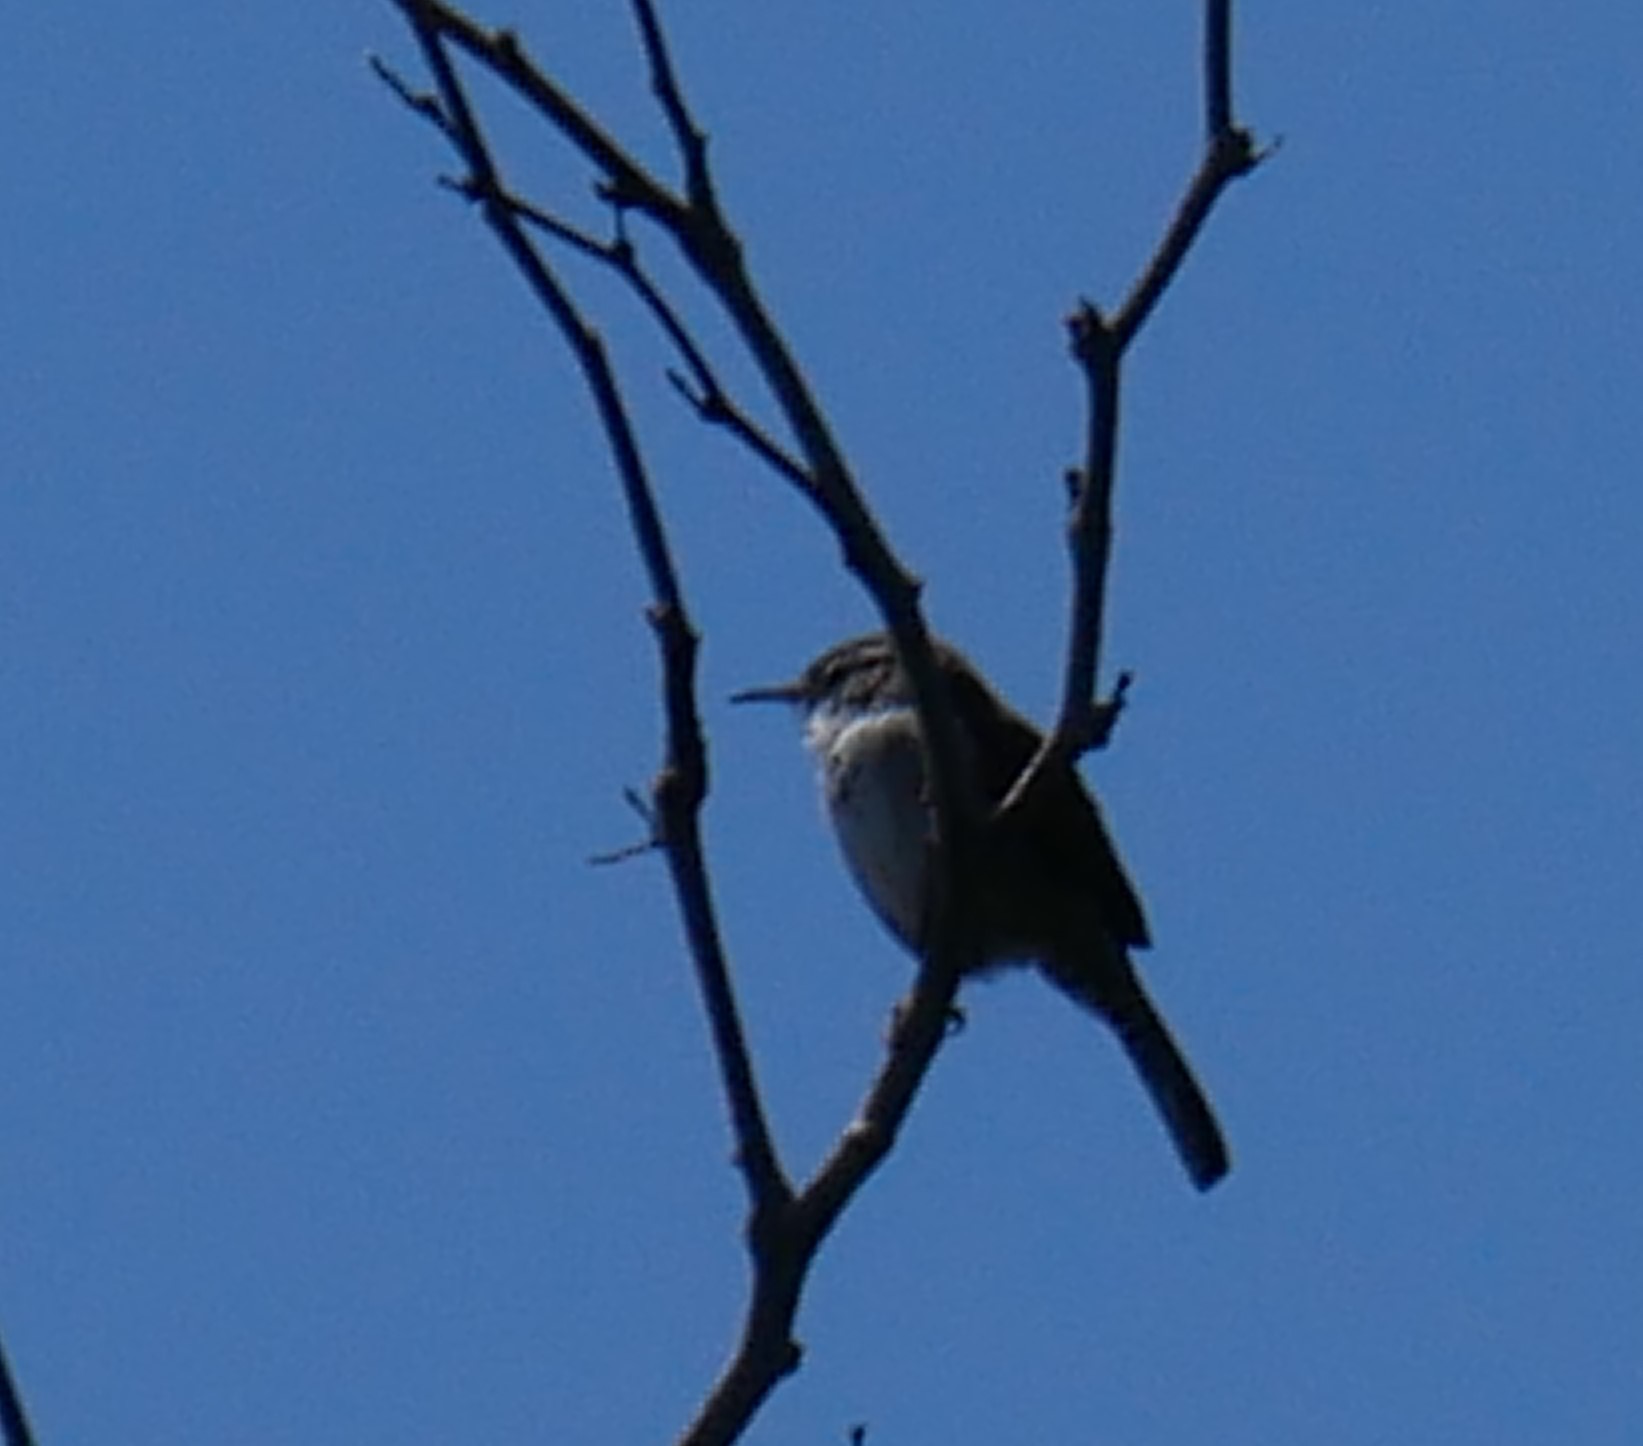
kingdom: Animalia
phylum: Chordata
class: Aves
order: Passeriformes
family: Troglodytidae
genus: Thryomanes
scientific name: Thryomanes bewickii
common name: Bewick's wren
